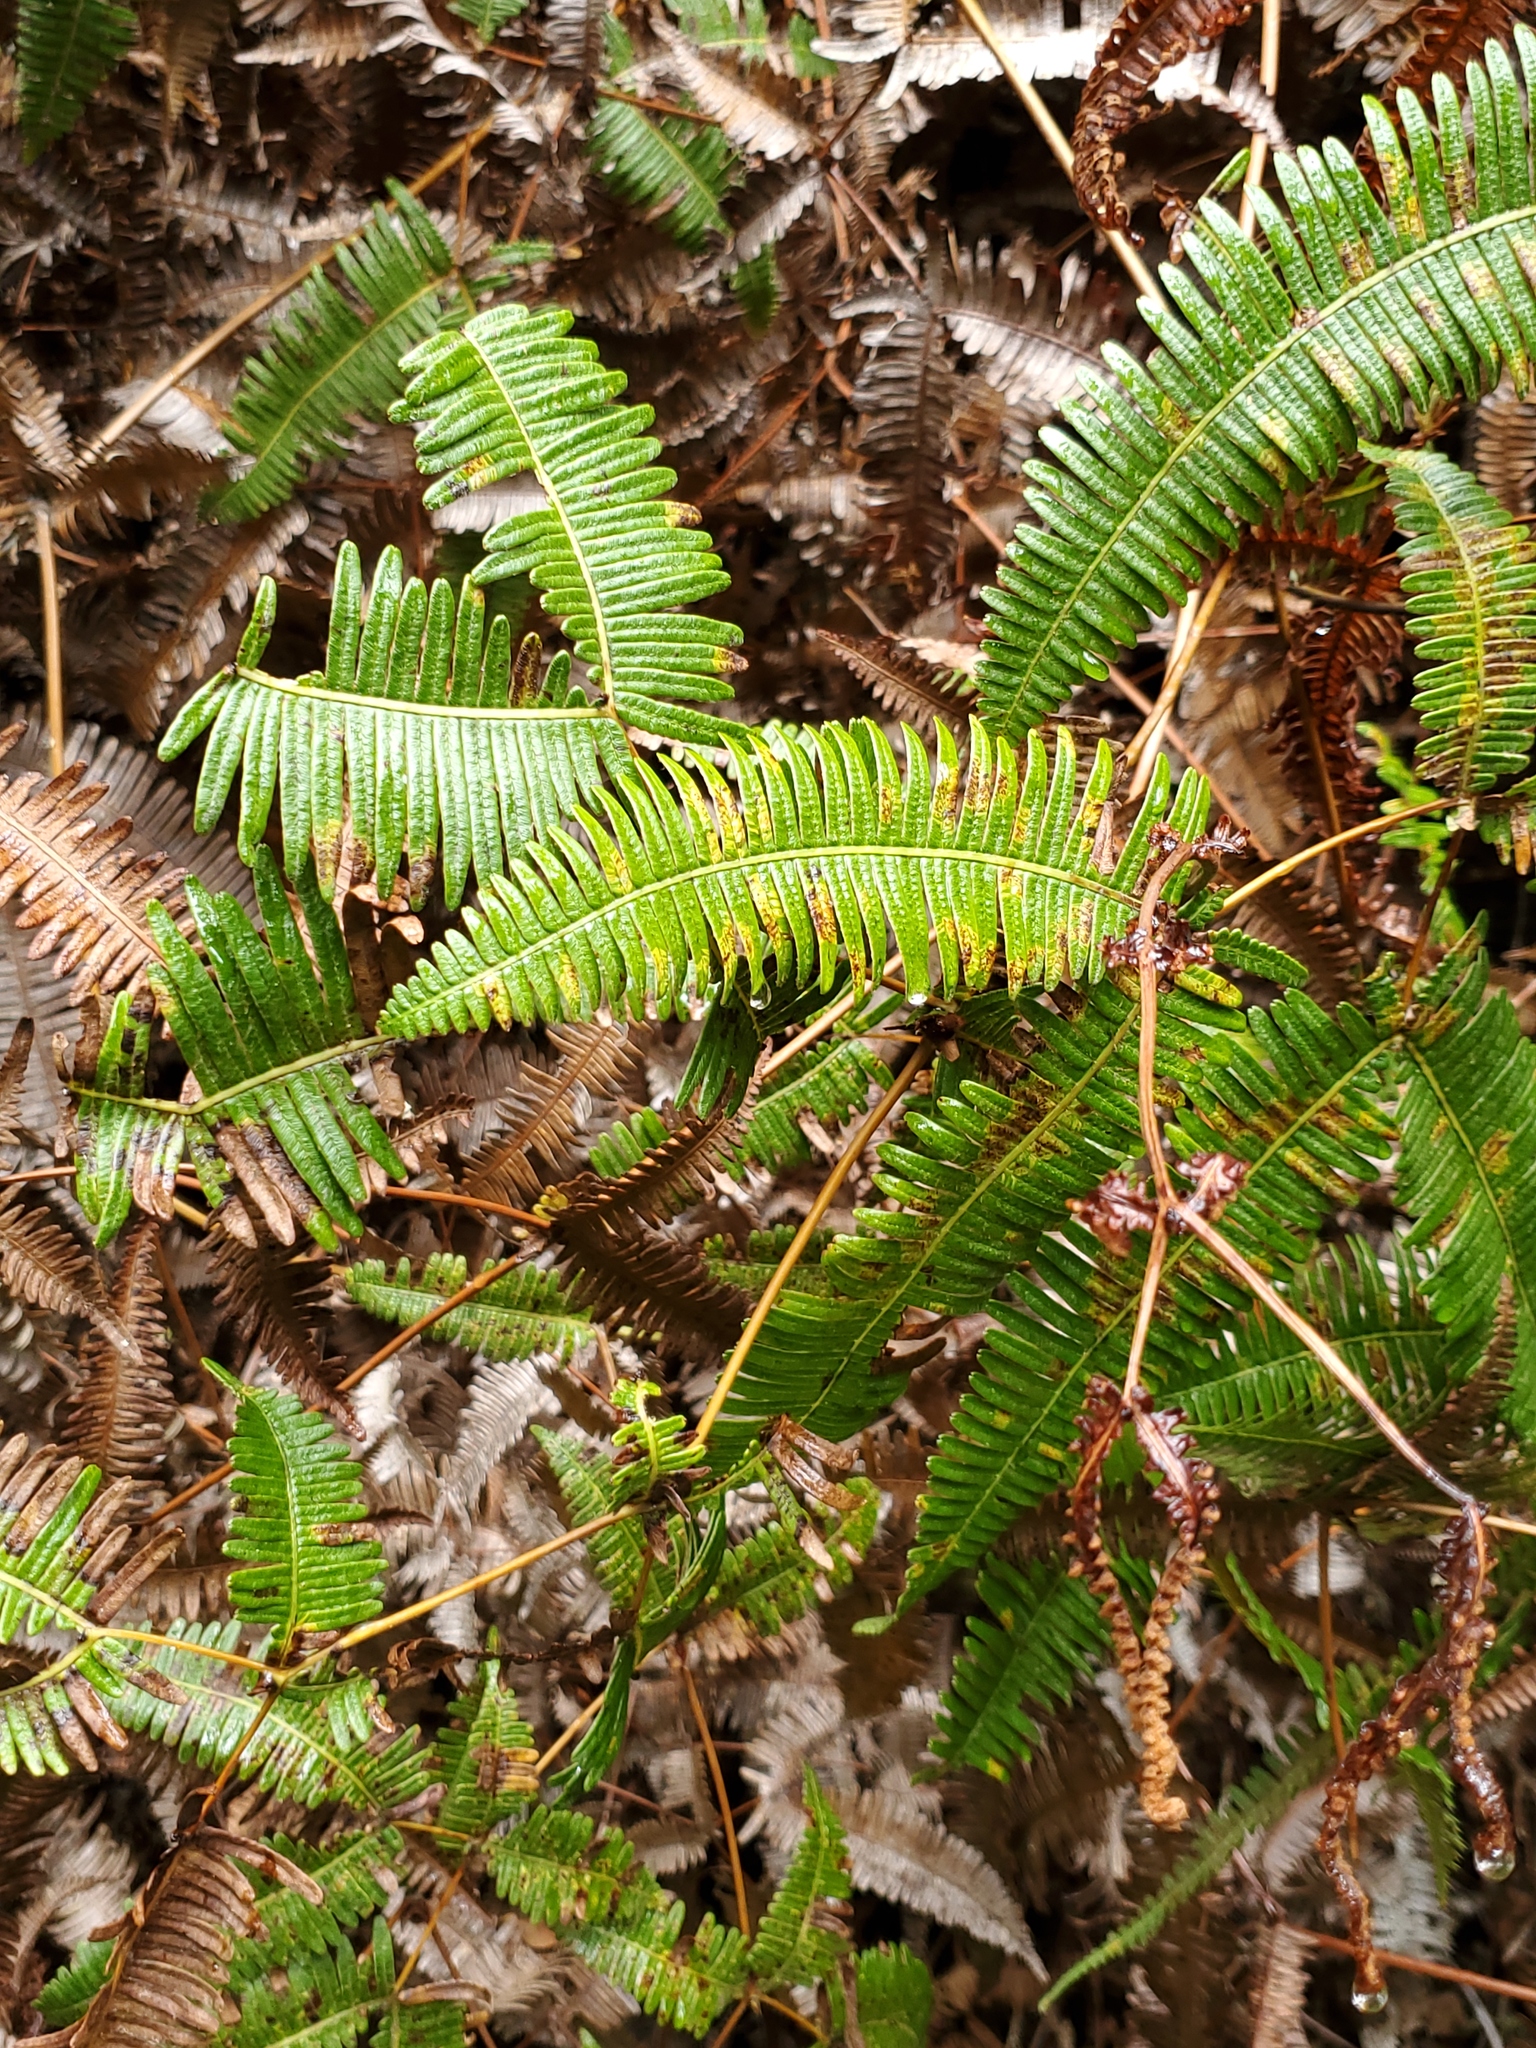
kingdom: Plantae
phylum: Tracheophyta
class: Polypodiopsida
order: Gleicheniales
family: Gleicheniaceae
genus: Dicranopteris
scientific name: Dicranopteris linearis
